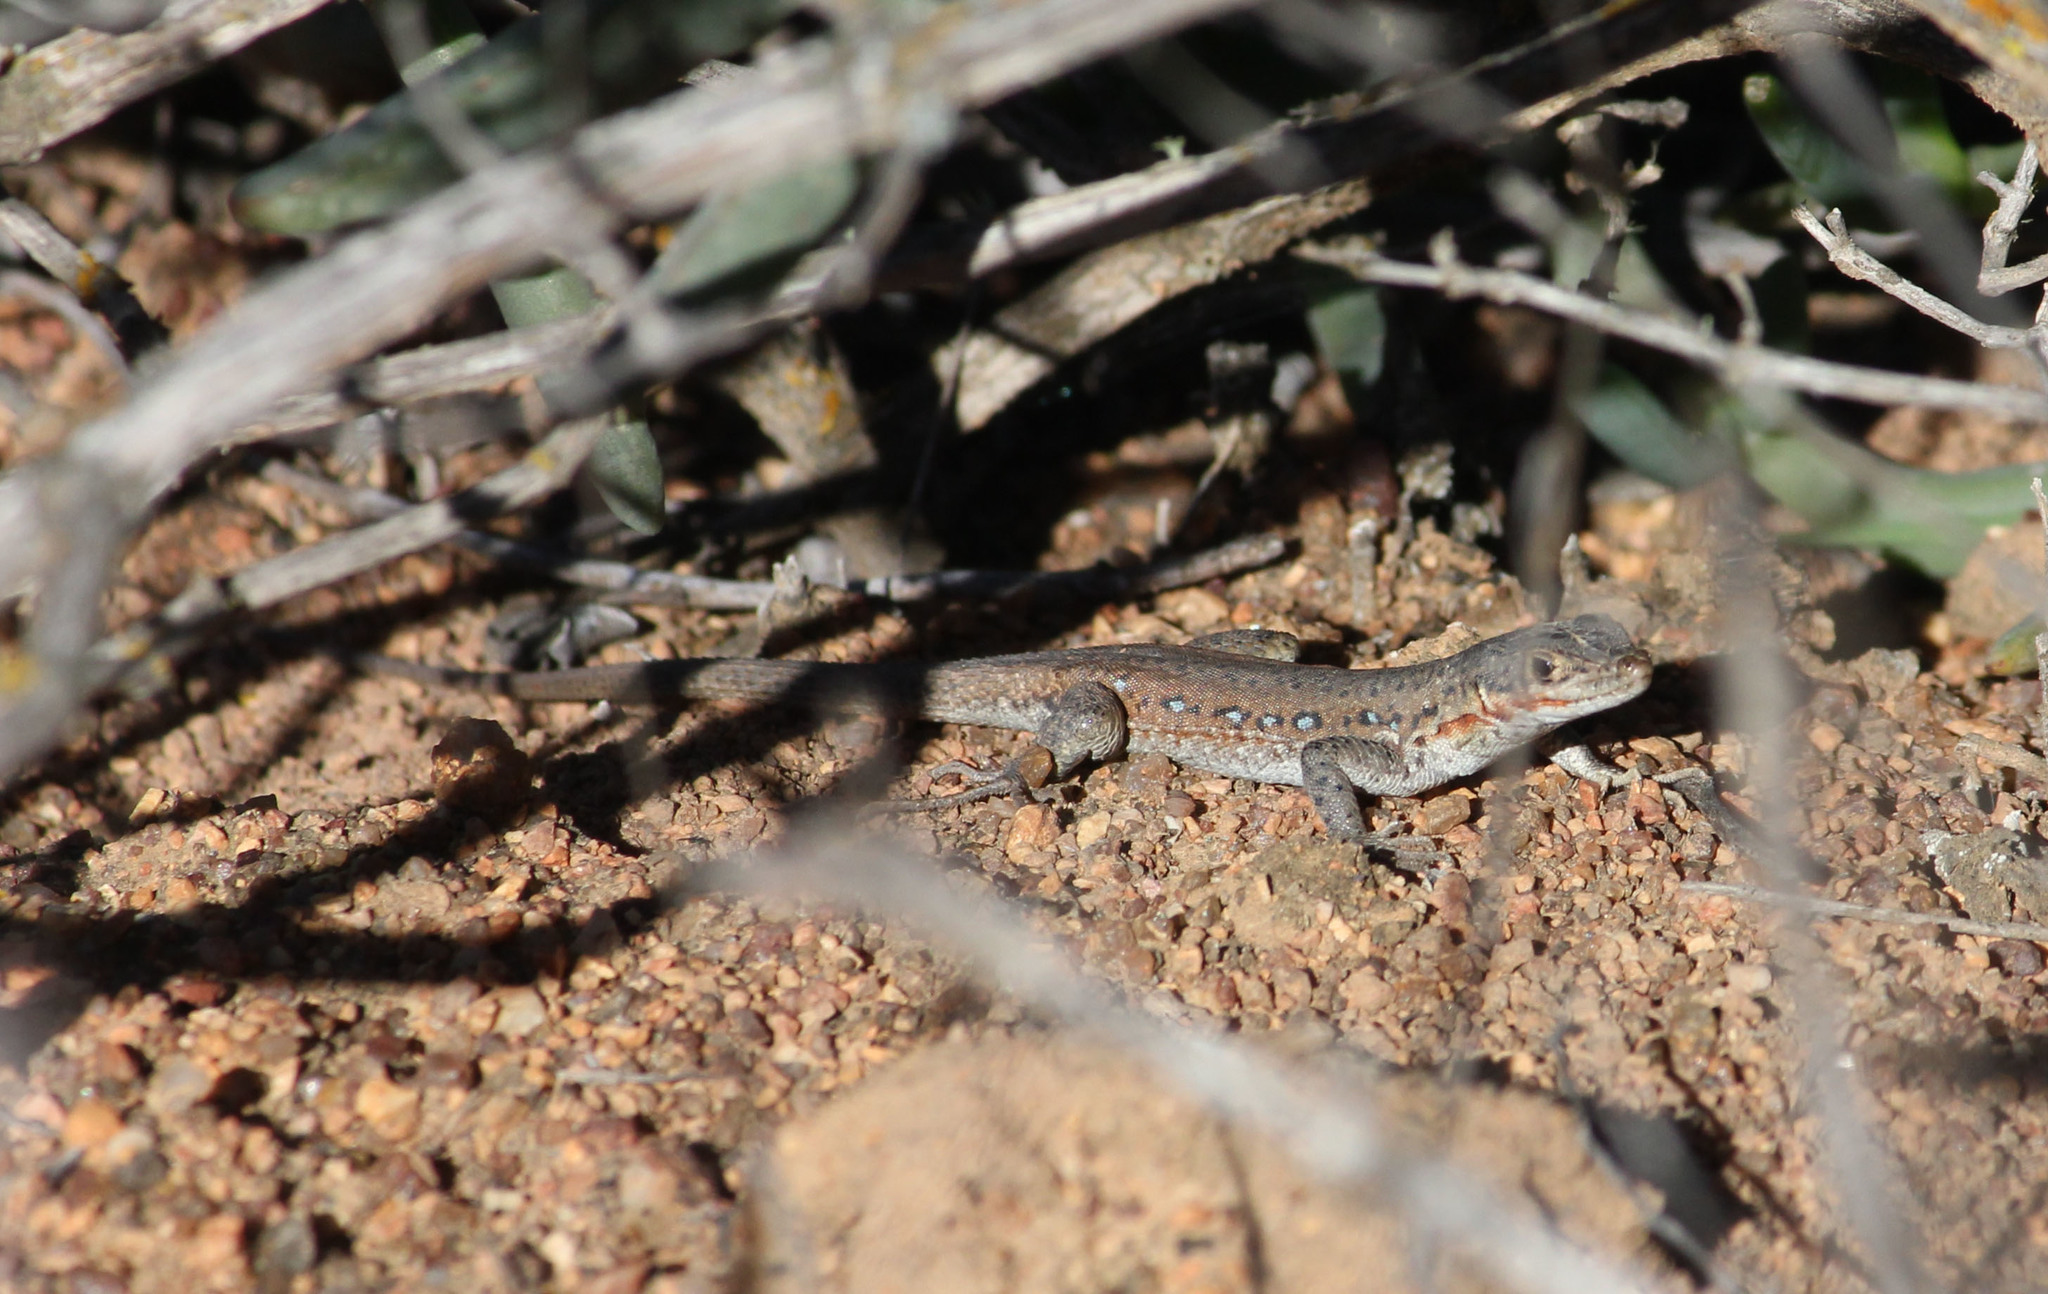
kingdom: Animalia
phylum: Chordata
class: Squamata
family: Lacertidae
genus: Pedioplanis
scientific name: Pedioplanis lineoocellata
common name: Spotted sand lizard
